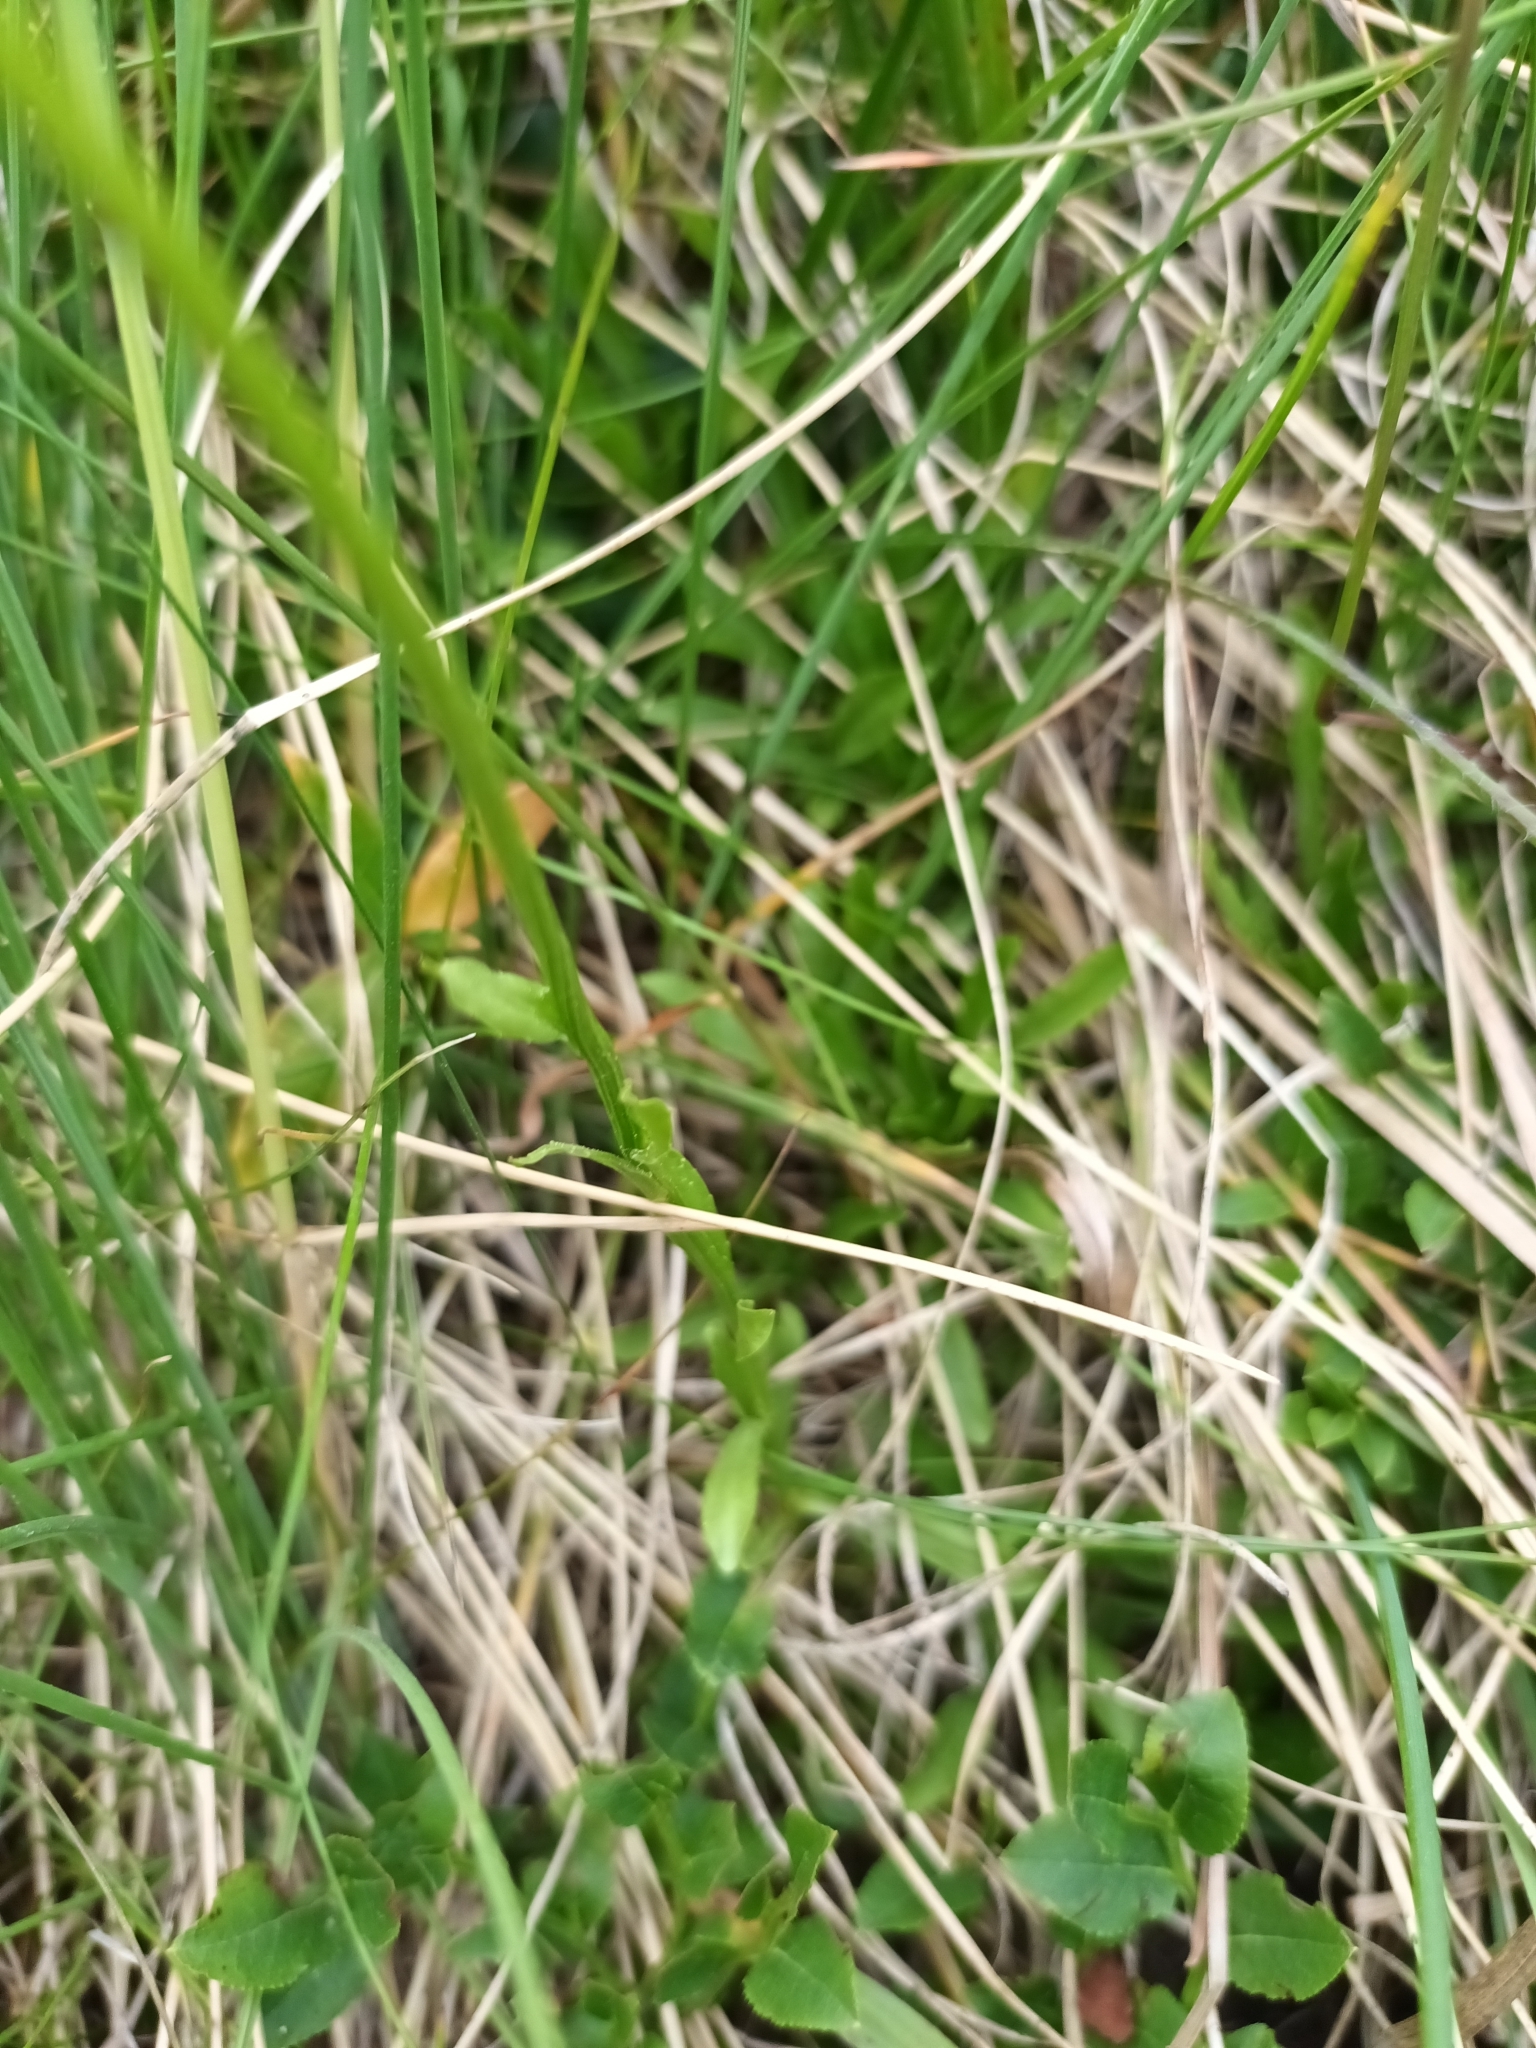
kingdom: Plantae
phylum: Tracheophyta
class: Magnoliopsida
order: Asterales
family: Campanulaceae
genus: Jasione
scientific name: Jasione bulgarica
